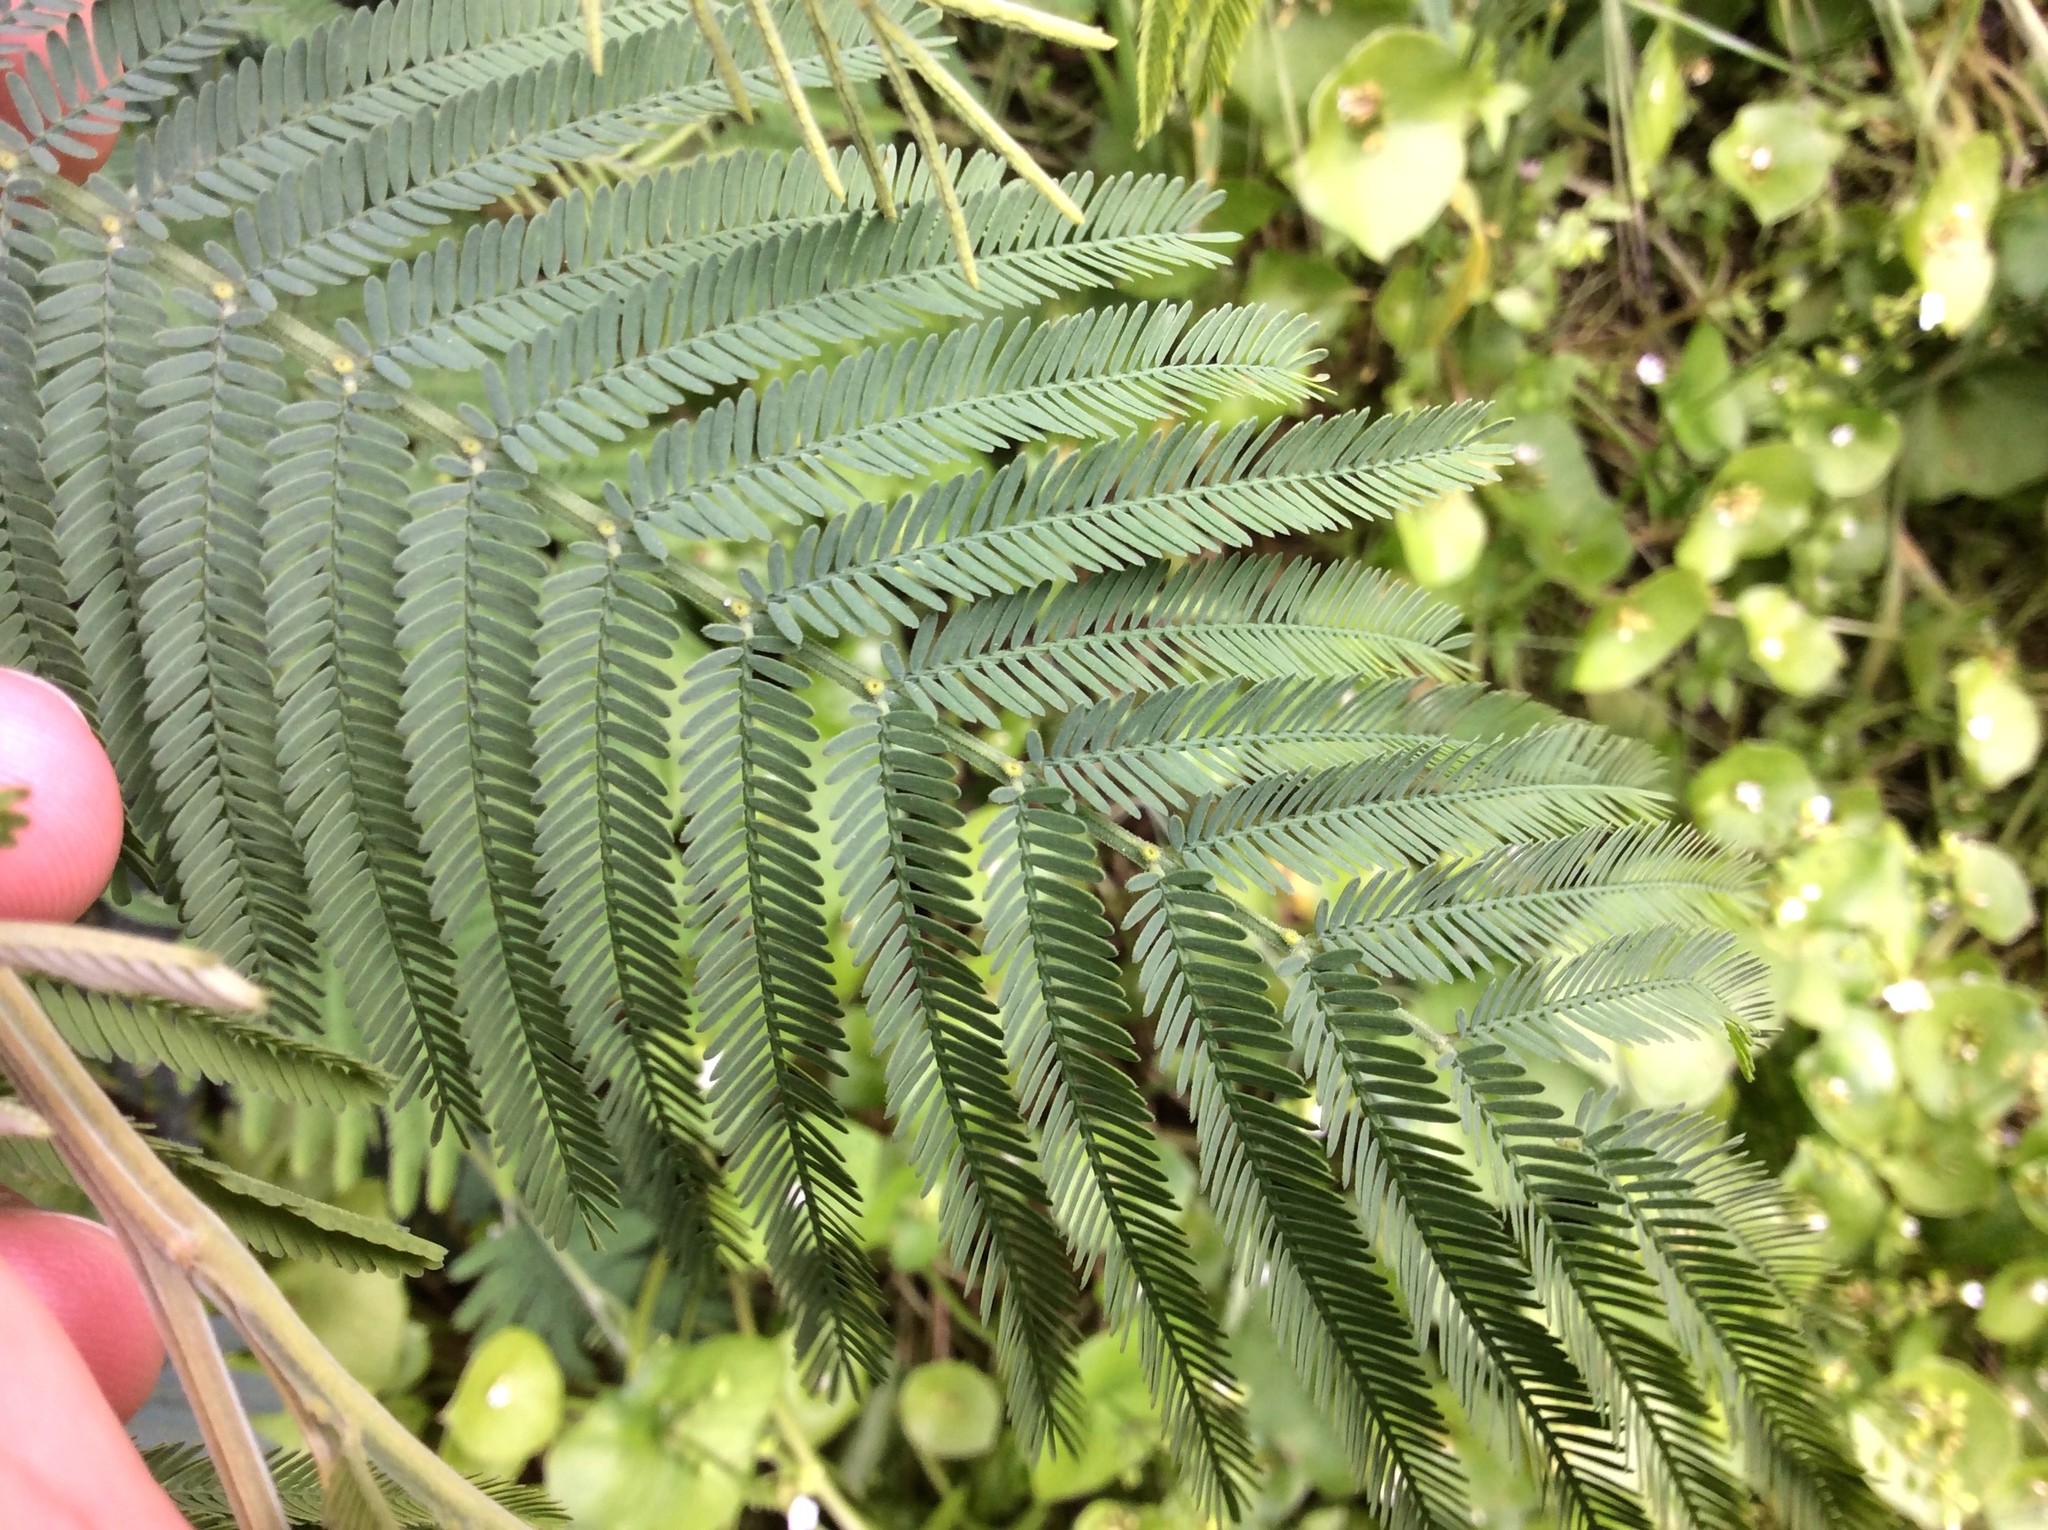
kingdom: Plantae
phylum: Tracheophyta
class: Magnoliopsida
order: Fabales
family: Fabaceae
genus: Acacia
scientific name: Acacia melanoxylon
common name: Blackwood
